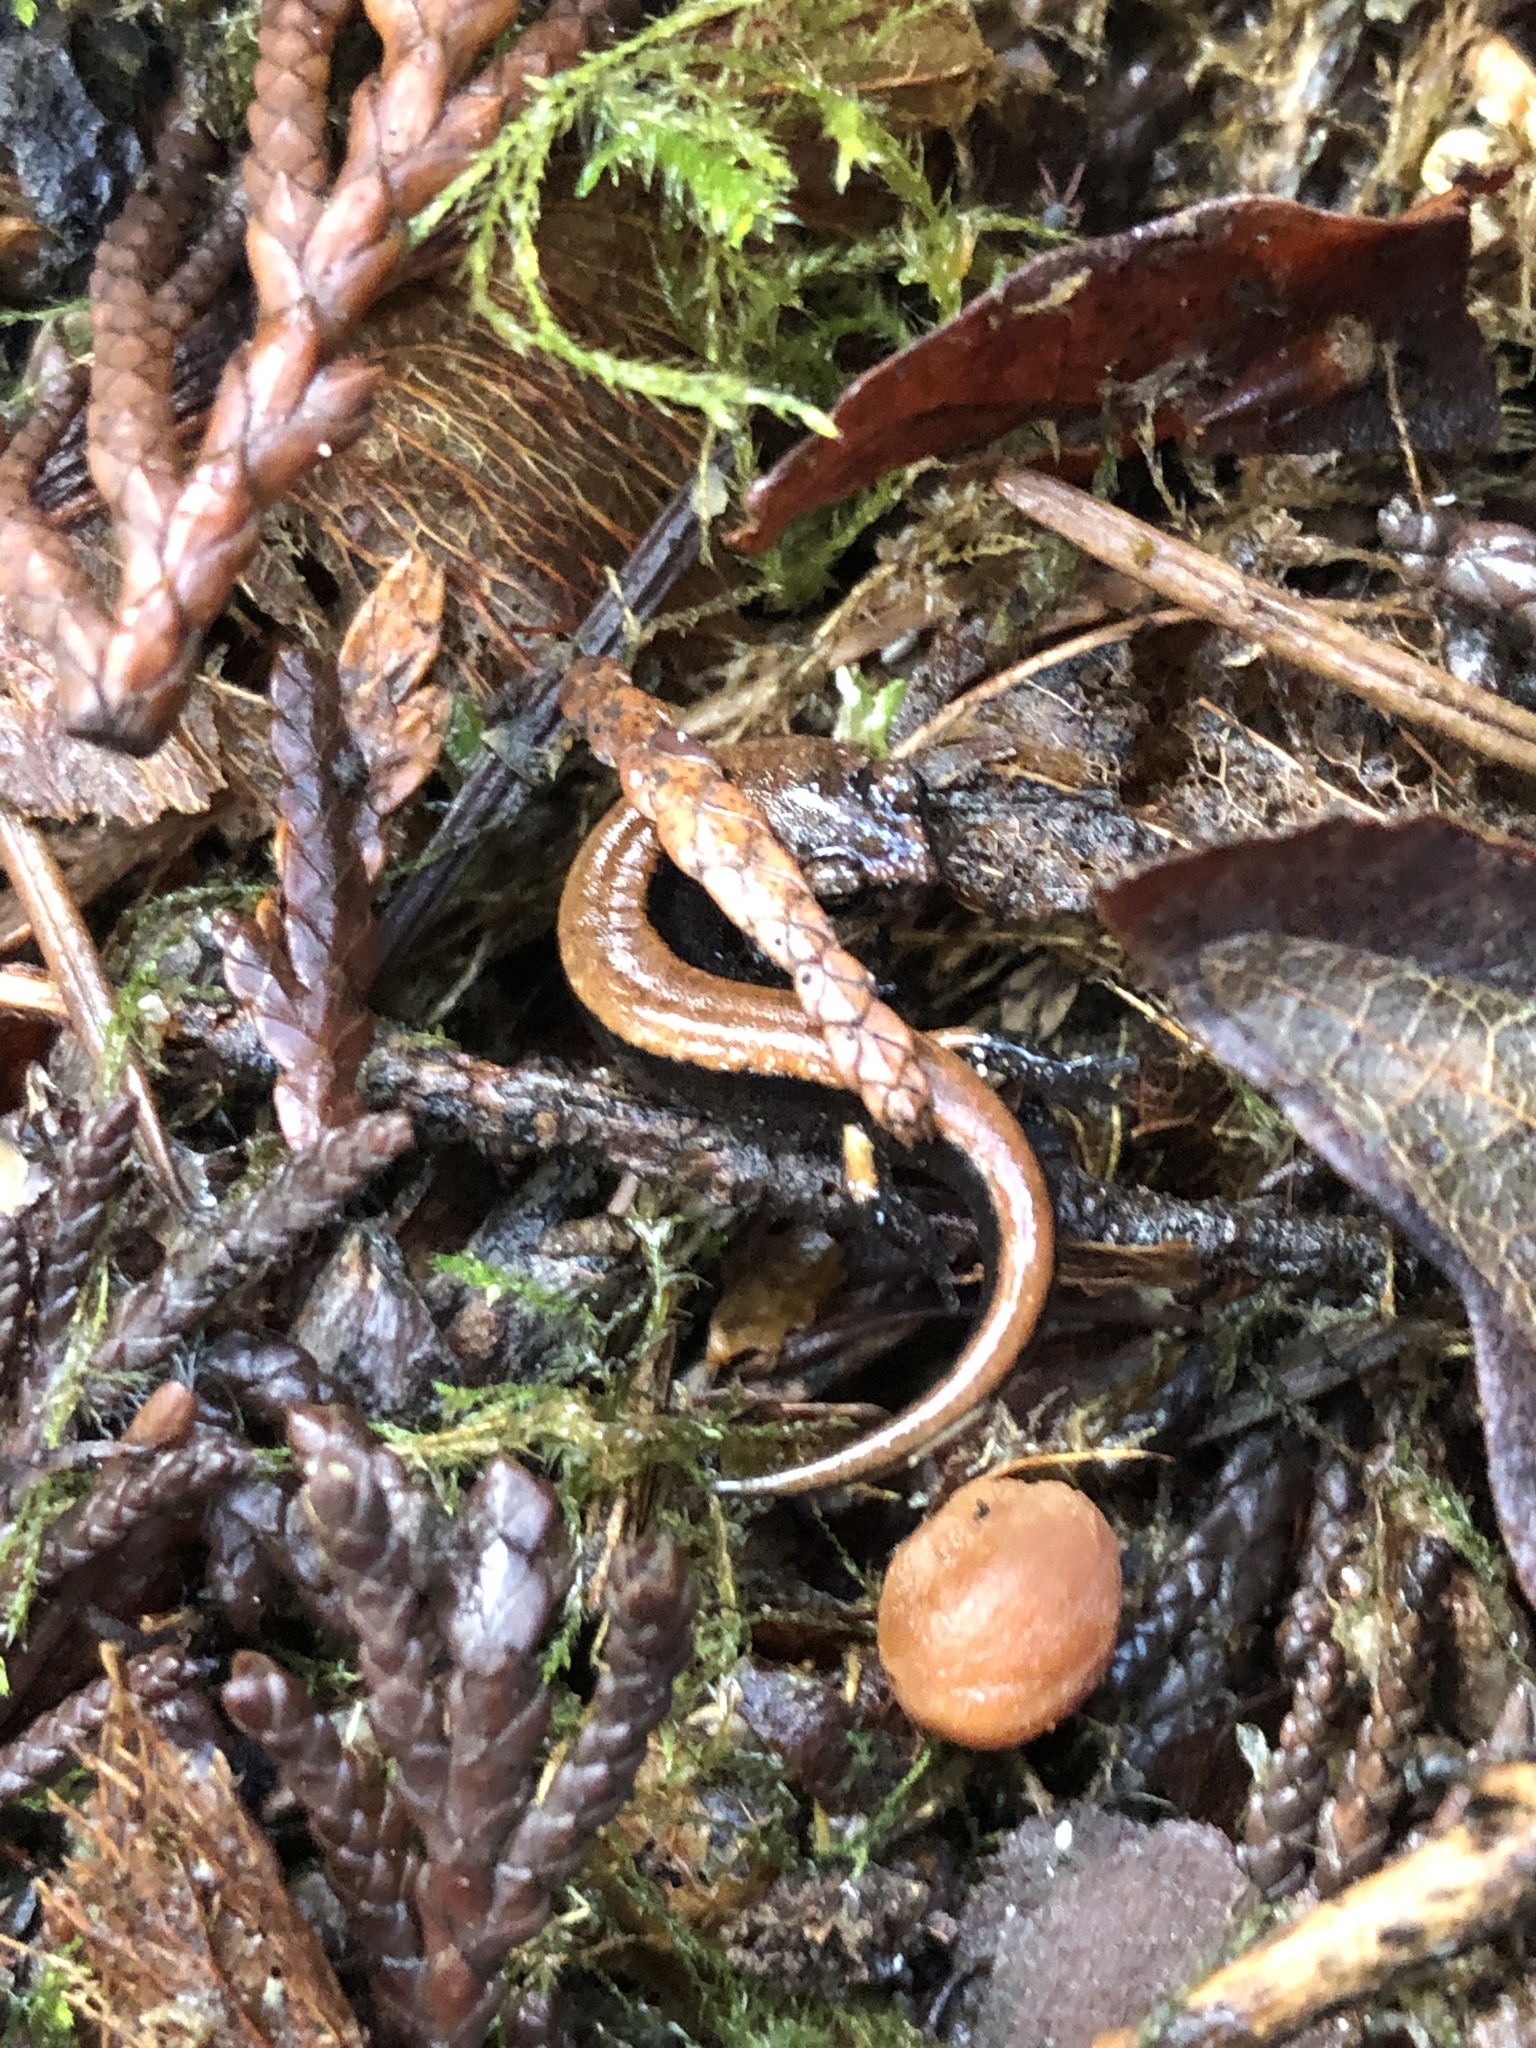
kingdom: Animalia
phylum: Chordata
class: Amphibia
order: Caudata
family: Plethodontidae
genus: Plethodon
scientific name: Plethodon vehiculum
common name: Western red-backed salamander
